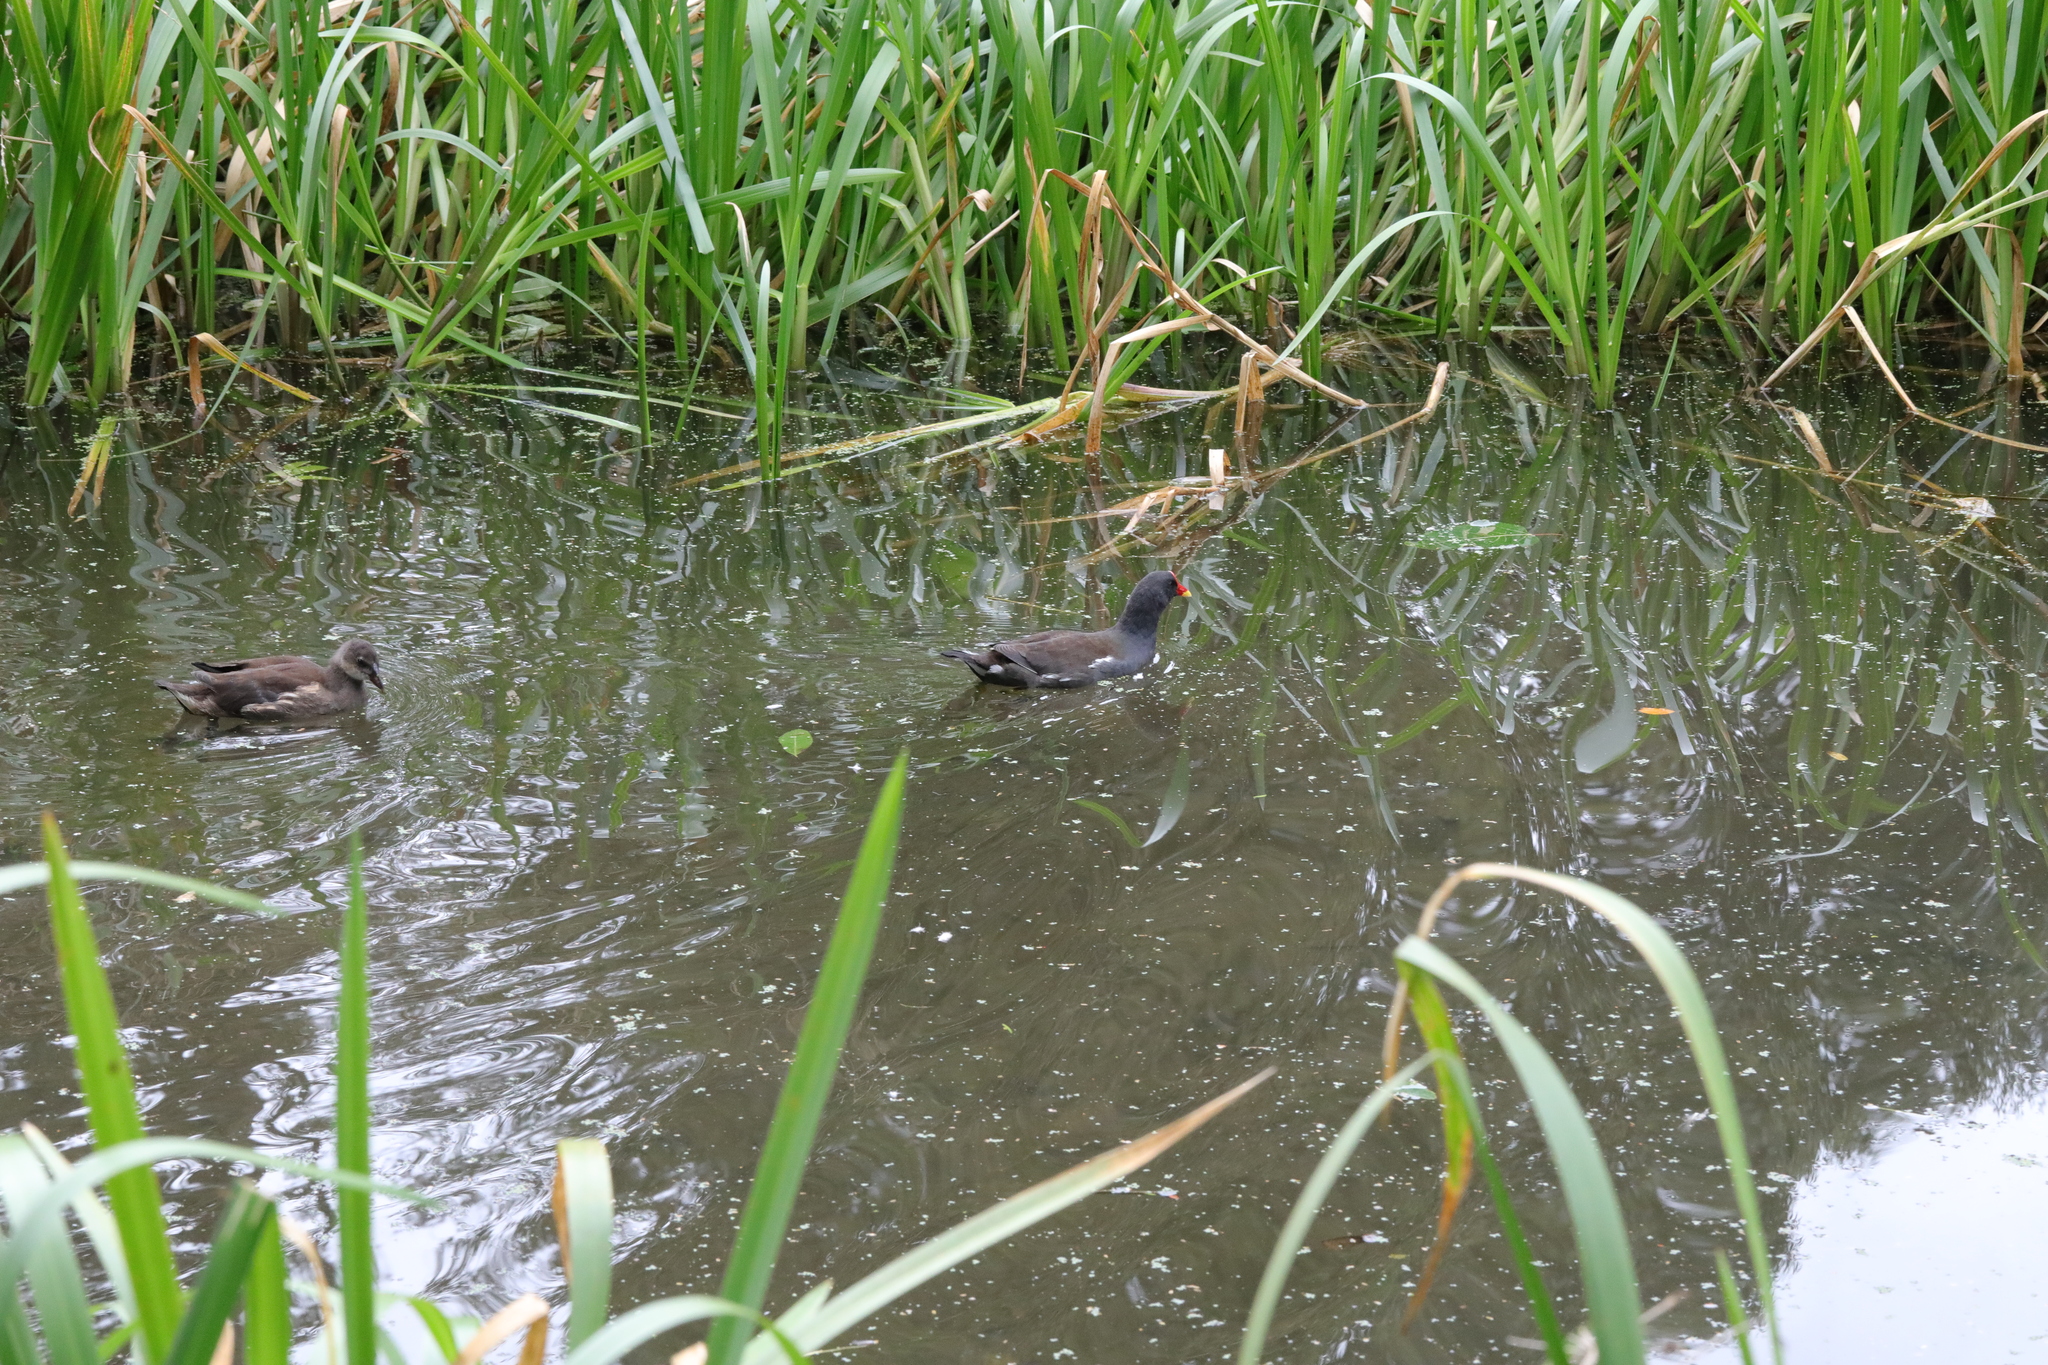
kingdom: Animalia
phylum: Chordata
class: Aves
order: Gruiformes
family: Rallidae
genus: Gallinula
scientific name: Gallinula chloropus
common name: Common moorhen
